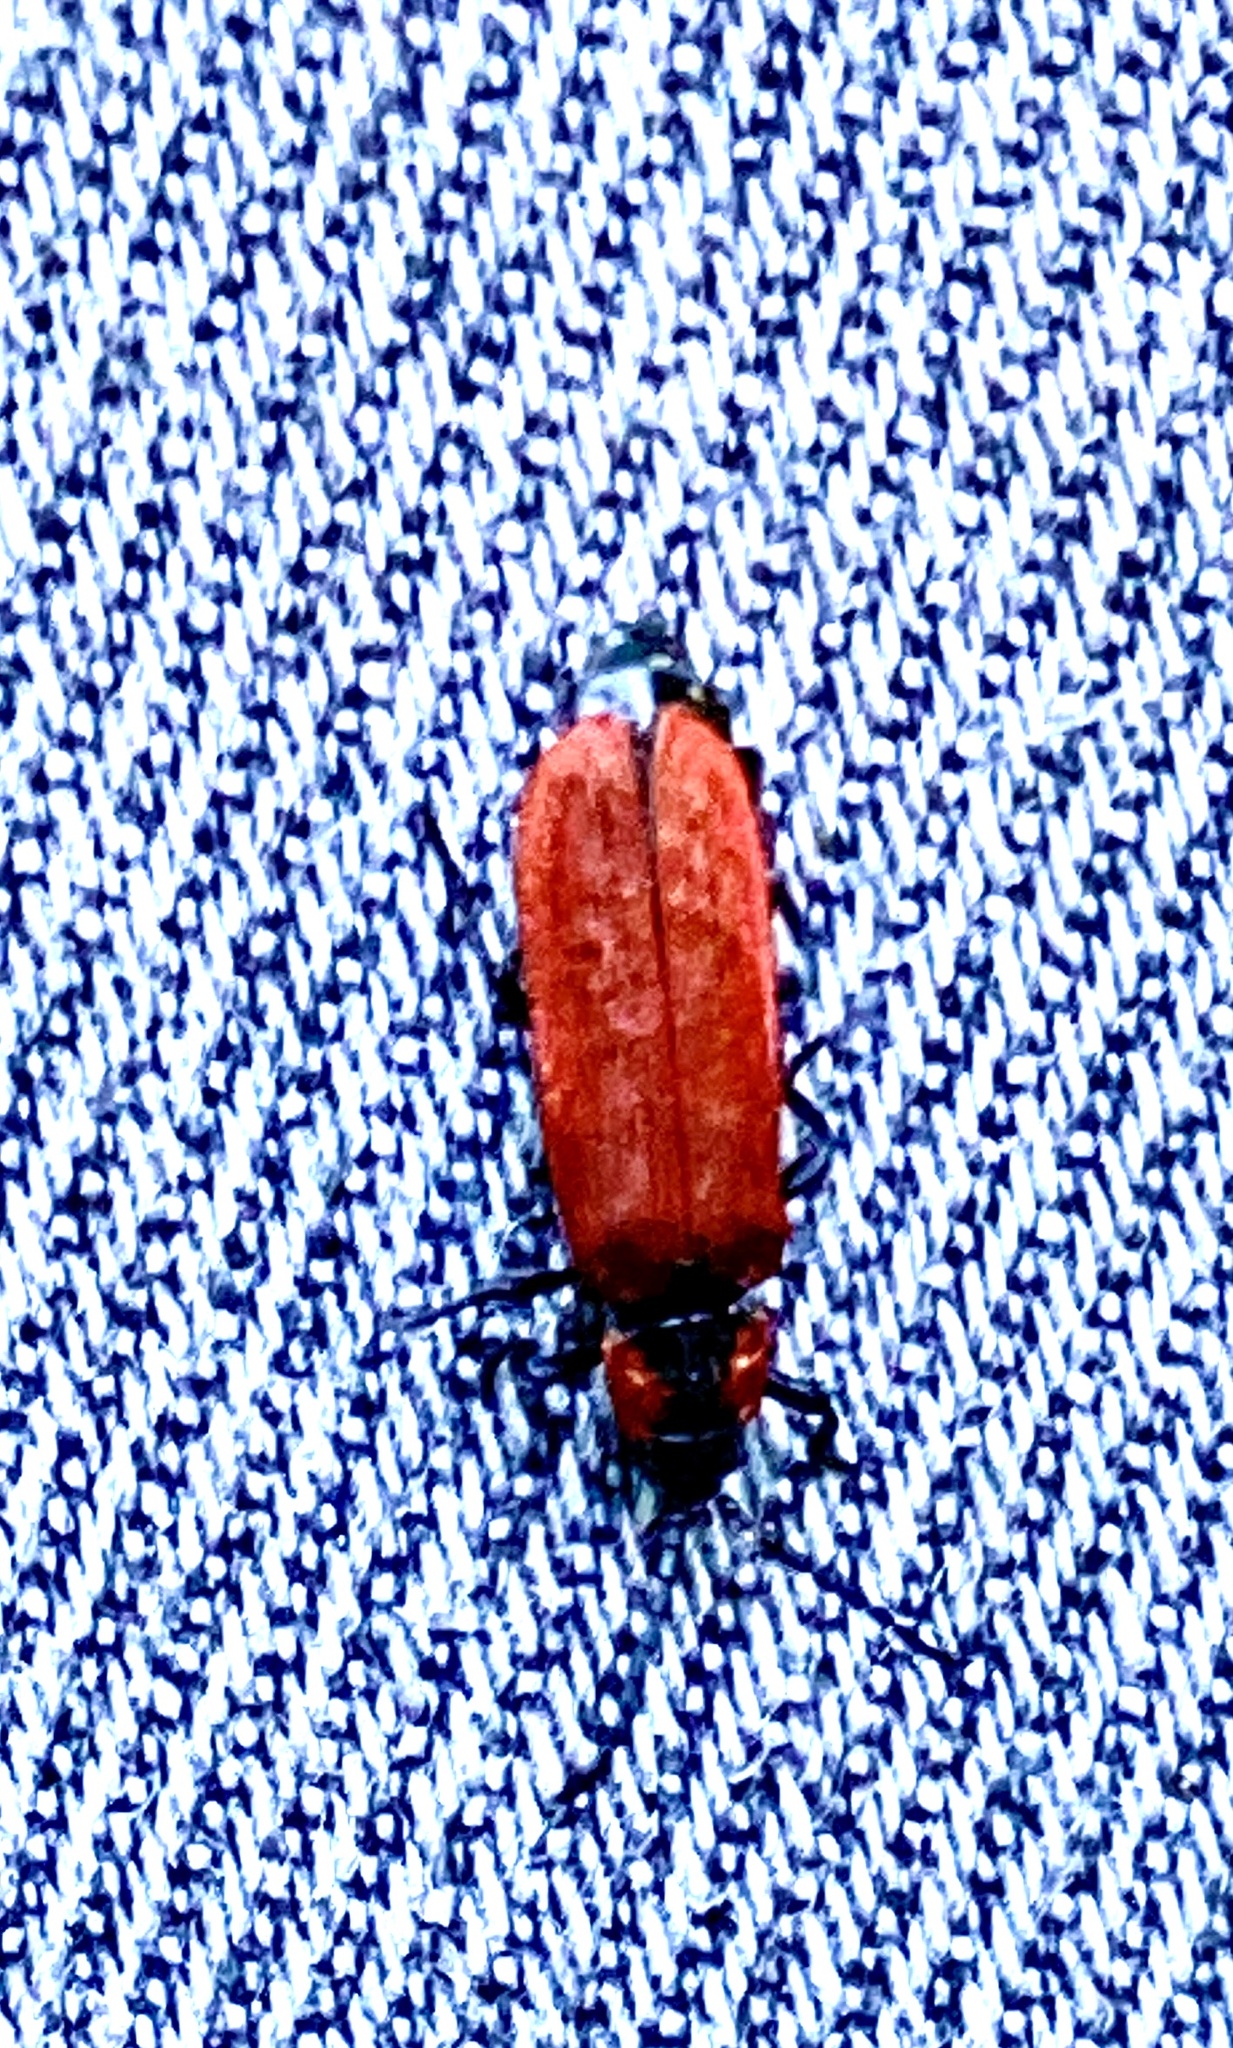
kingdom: Animalia
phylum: Arthropoda
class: Insecta
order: Coleoptera
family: Lycidae
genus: Lygistopterus
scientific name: Lygistopterus sanguineus
